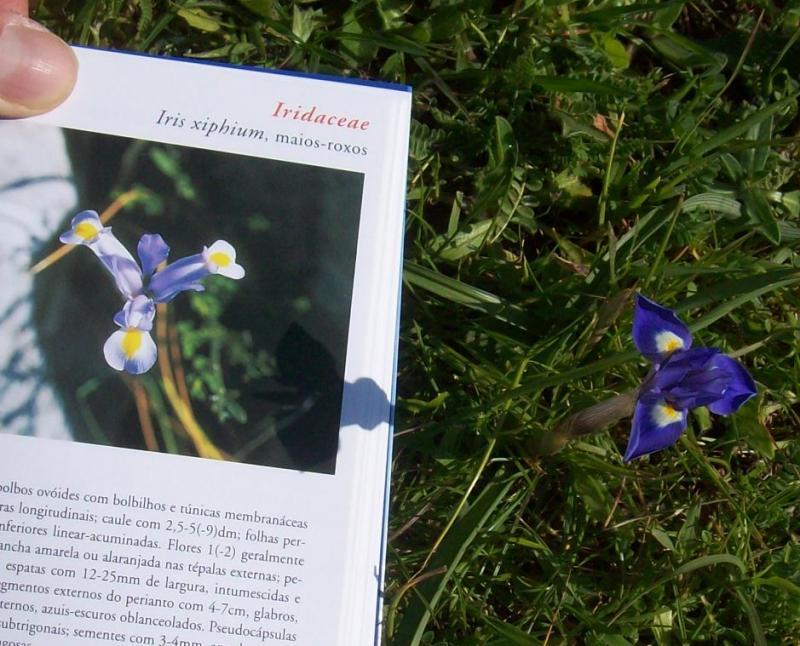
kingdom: Plantae
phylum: Tracheophyta
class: Liliopsida
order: Asparagales
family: Iridaceae
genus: Moraea
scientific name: Moraea sisyrinchium
